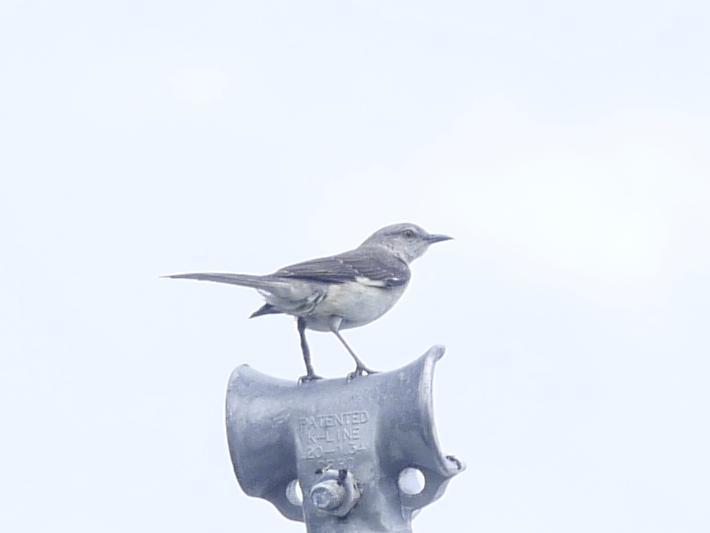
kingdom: Animalia
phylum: Chordata
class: Aves
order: Passeriformes
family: Mimidae
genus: Mimus
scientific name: Mimus polyglottos
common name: Northern mockingbird
